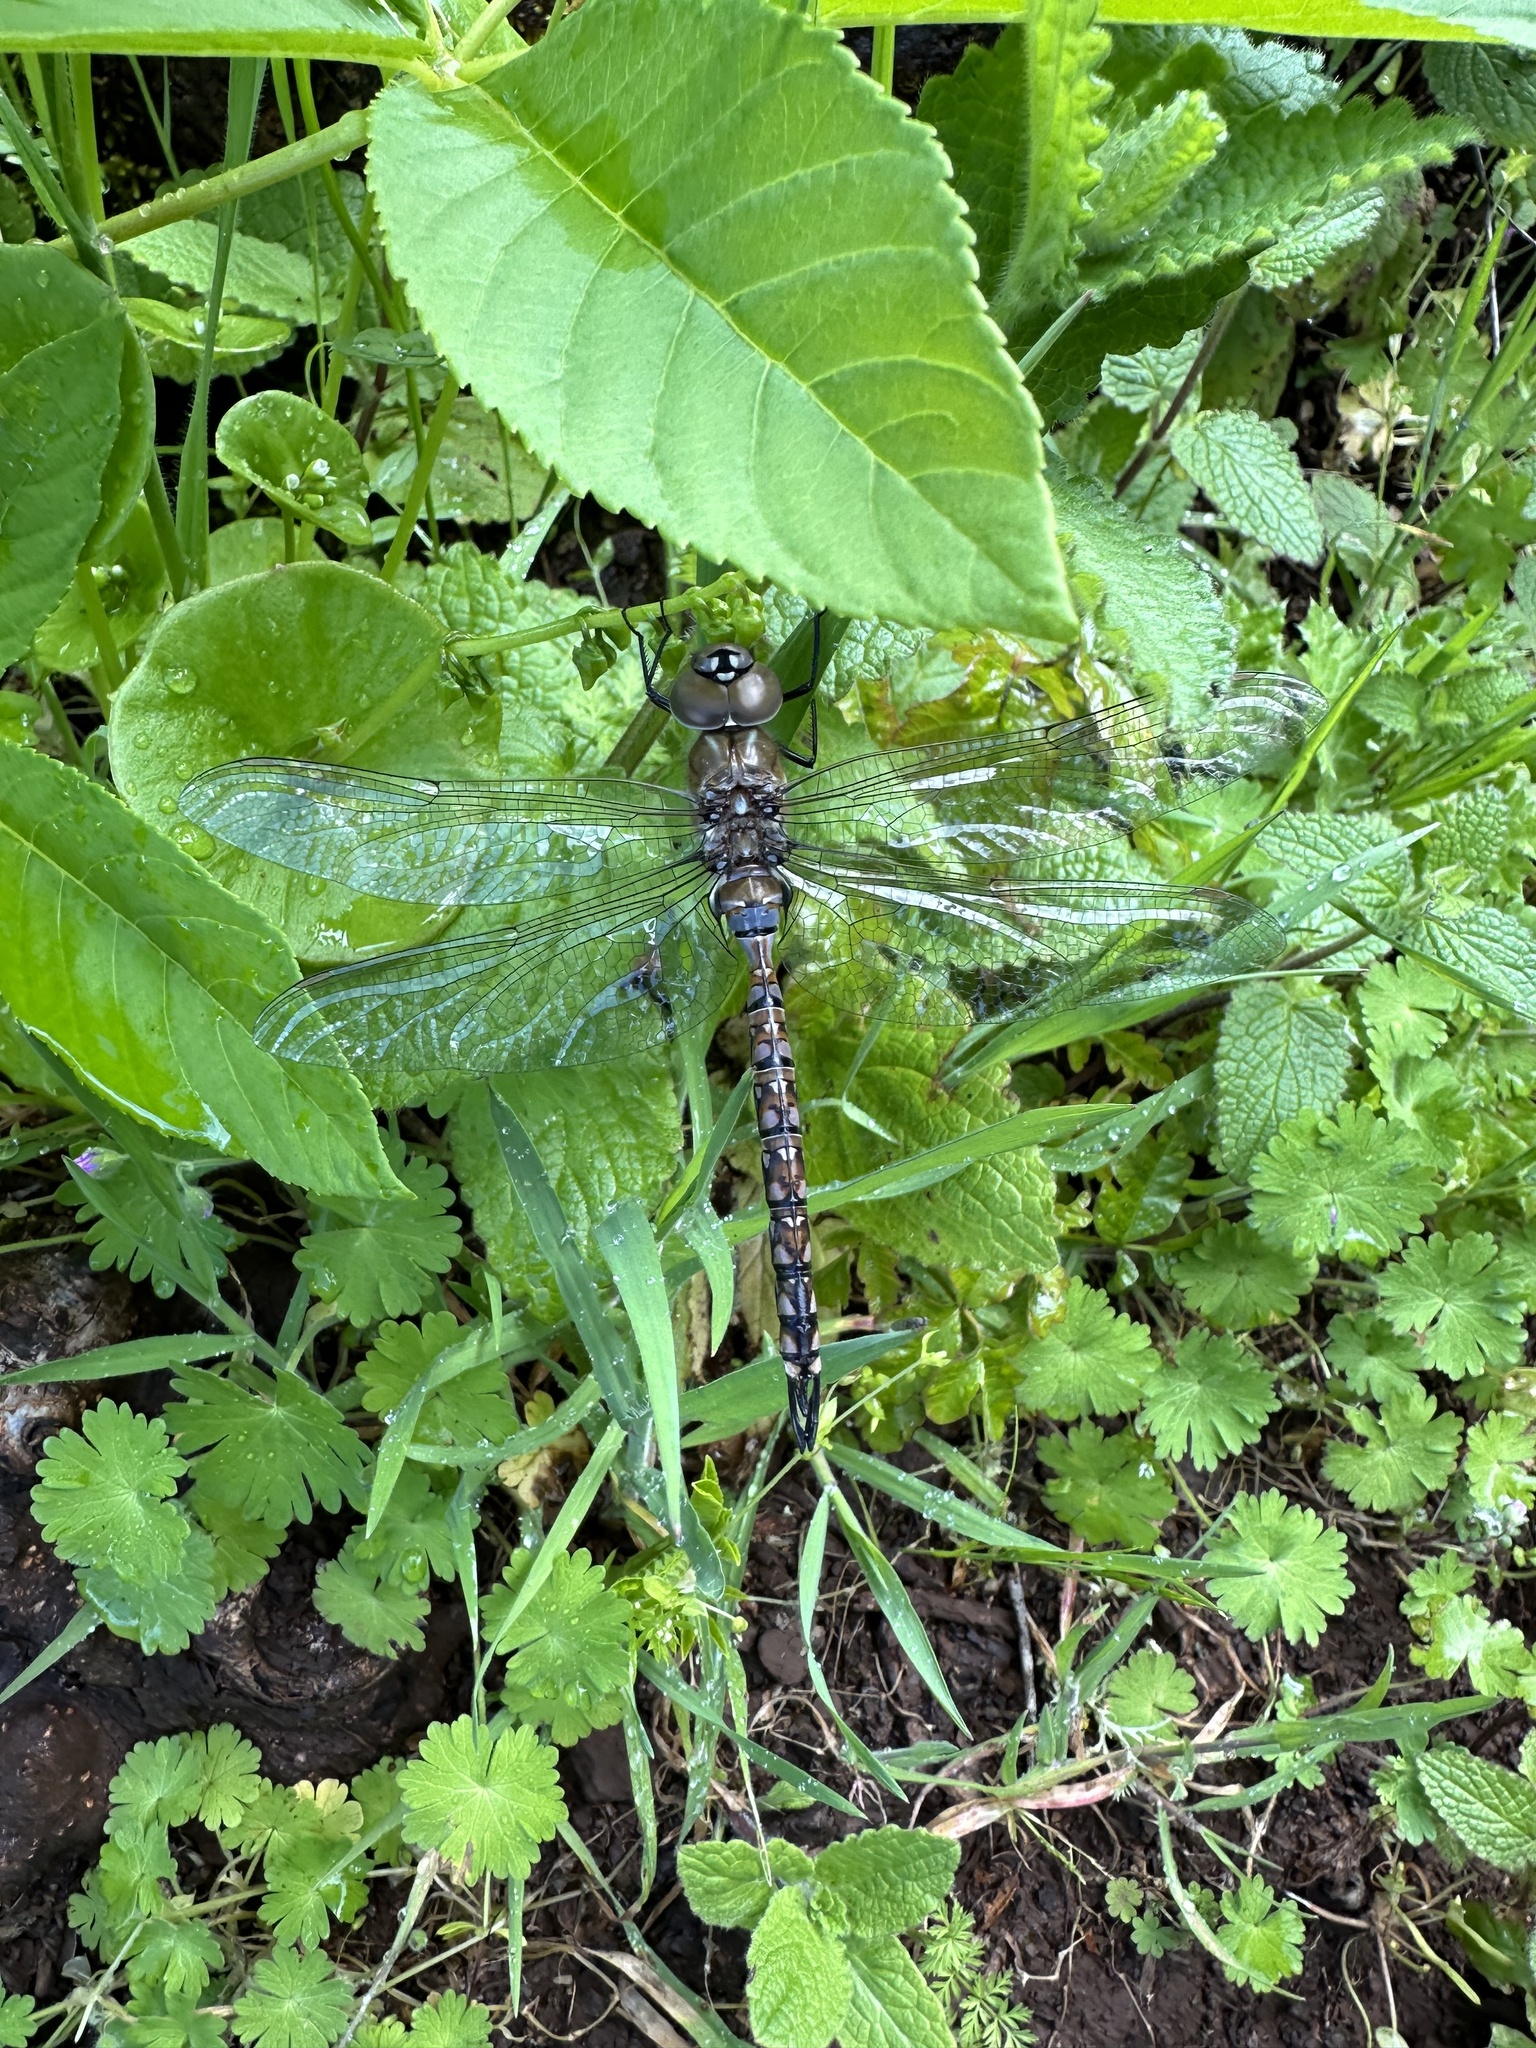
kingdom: Animalia
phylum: Arthropoda
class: Insecta
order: Odonata
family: Aeshnidae
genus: Rhionaeschna
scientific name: Rhionaeschna multicolor
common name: Blue-eyed darner
